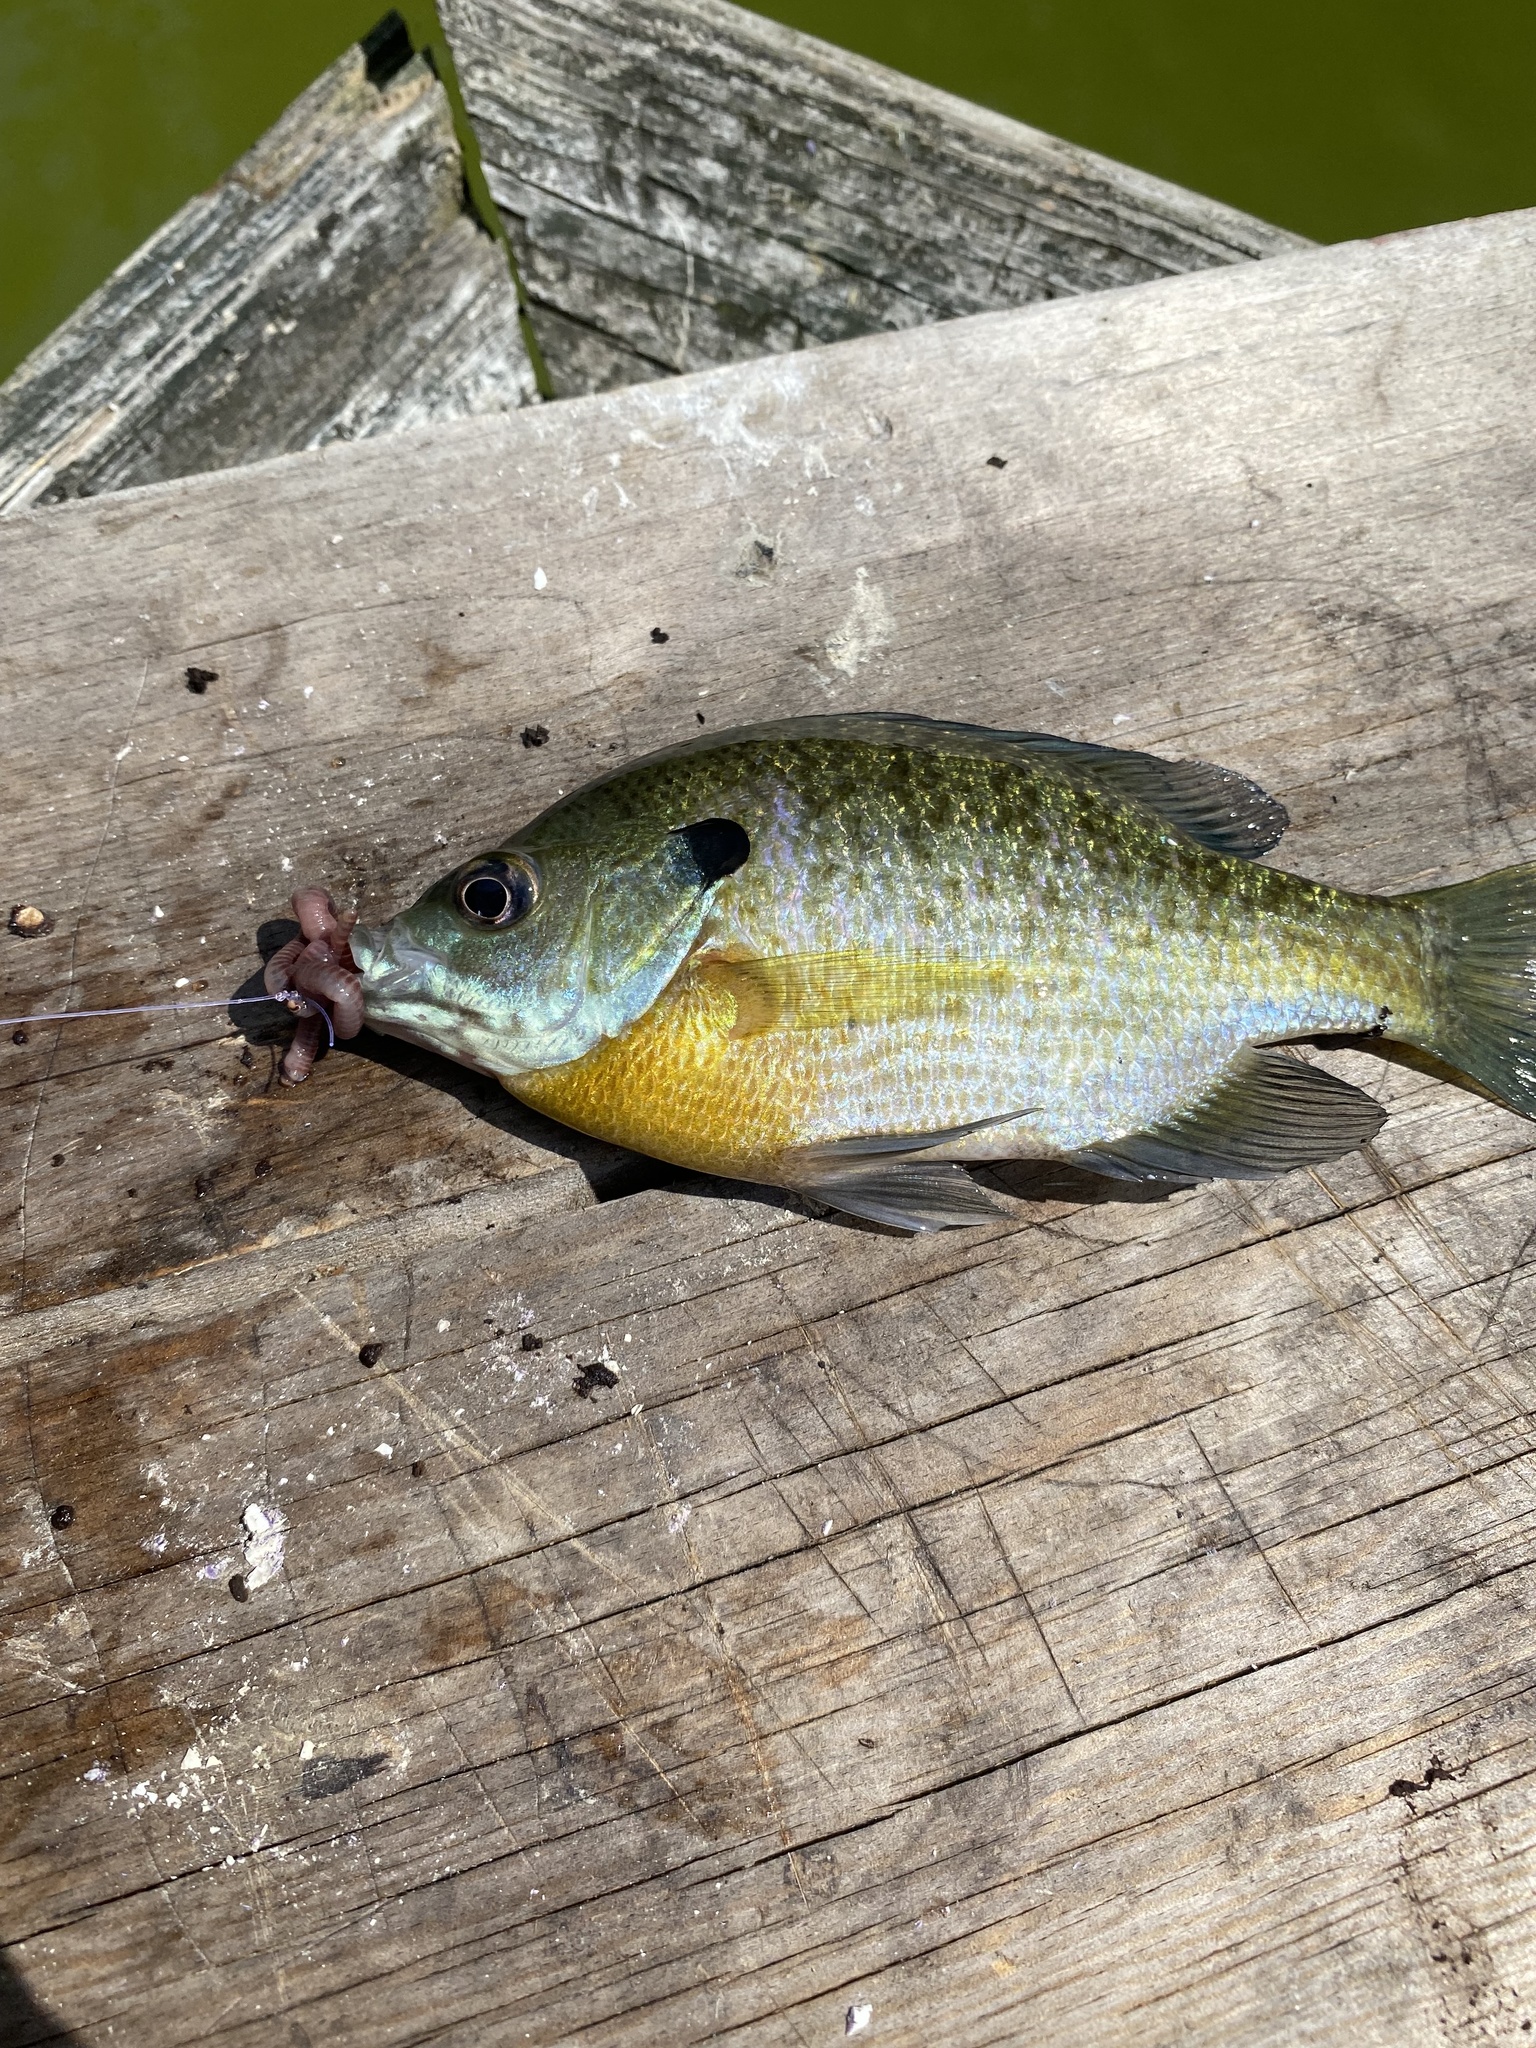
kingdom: Animalia
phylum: Chordata
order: Perciformes
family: Centrarchidae
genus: Lepomis
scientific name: Lepomis macrochirus
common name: Bluegill
